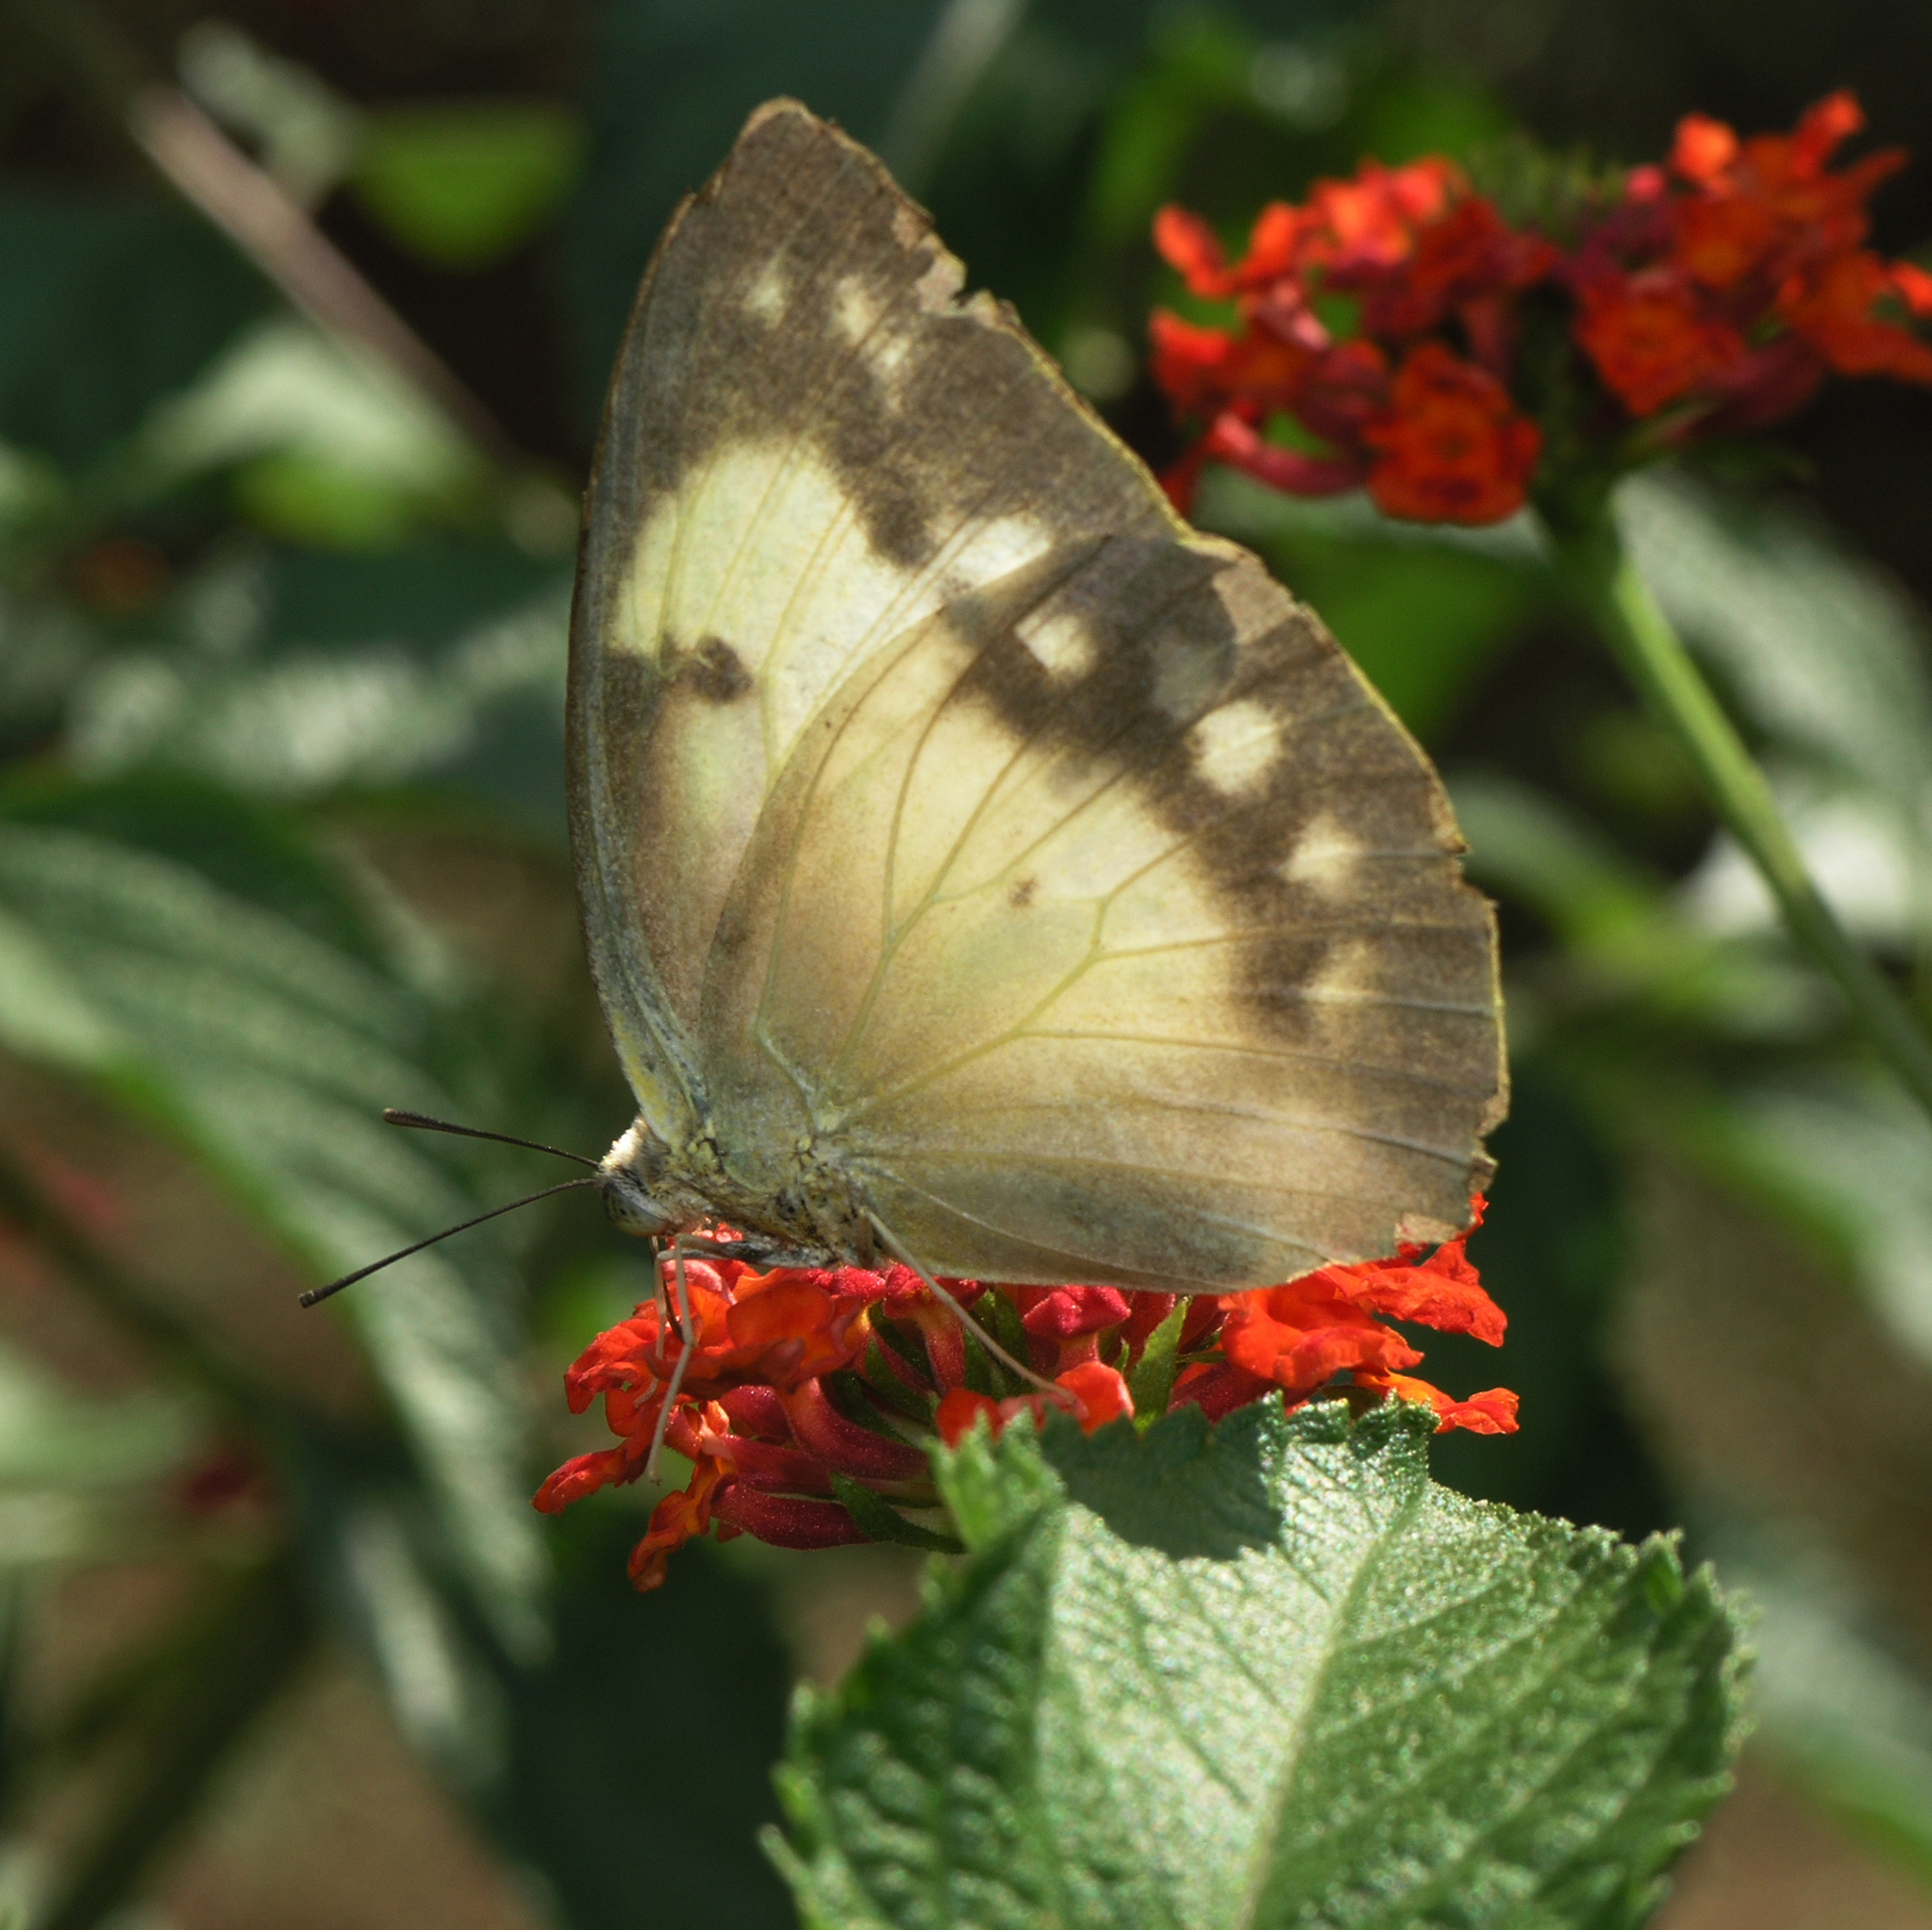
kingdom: Animalia
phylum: Arthropoda
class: Insecta
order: Lepidoptera
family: Pieridae
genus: Catopsilia
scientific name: Catopsilia pomona
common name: Common emigrant
